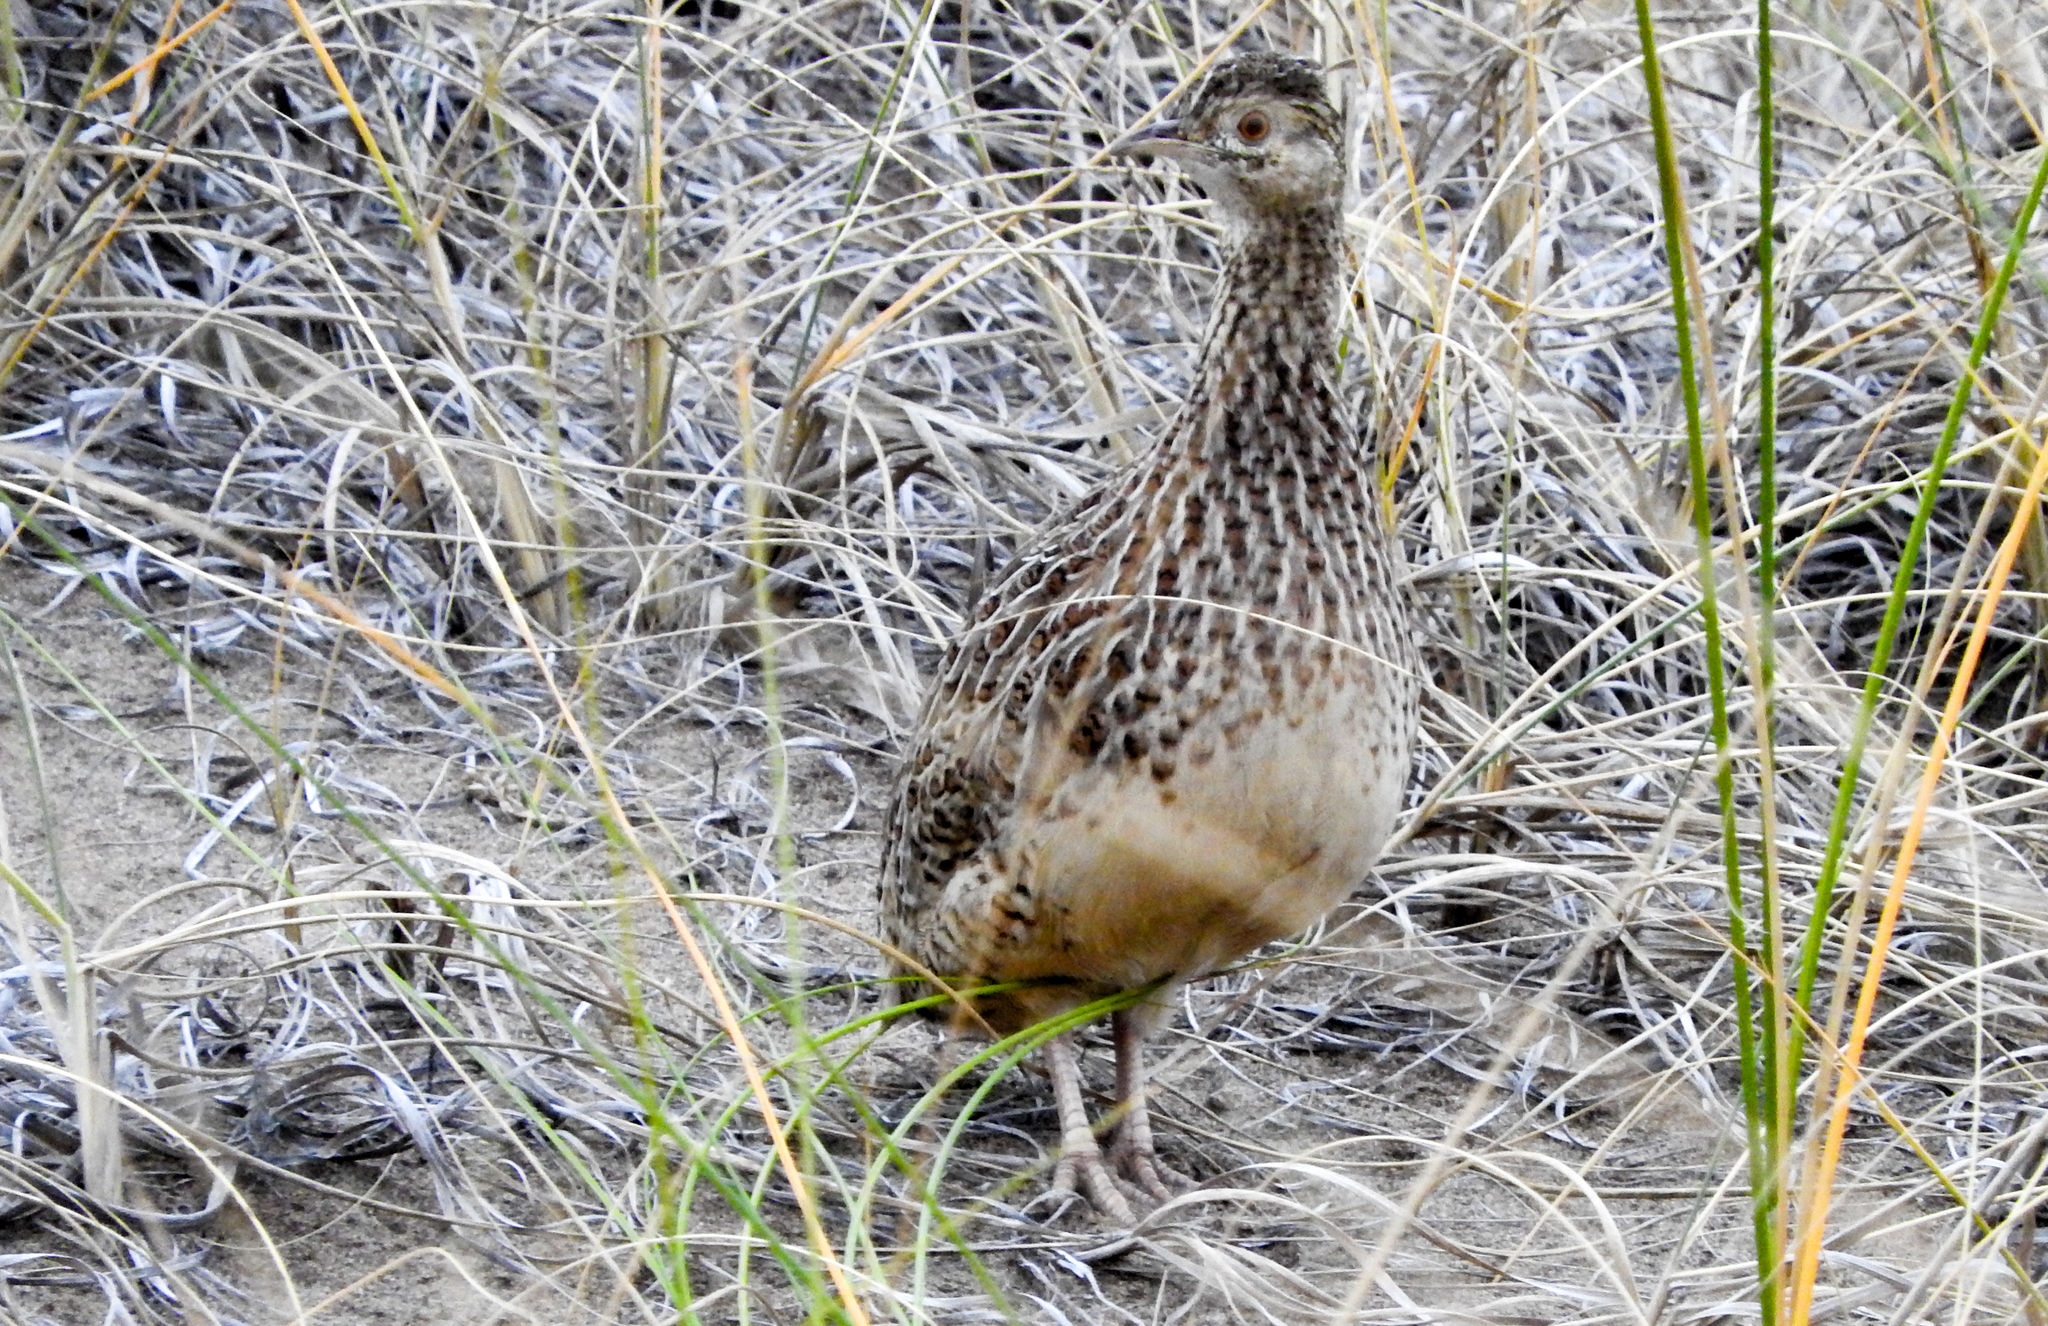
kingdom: Animalia
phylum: Chordata
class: Aves
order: Tinamiformes
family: Tinamidae
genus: Nothura
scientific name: Nothura darwinii
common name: Darwin's nothura
